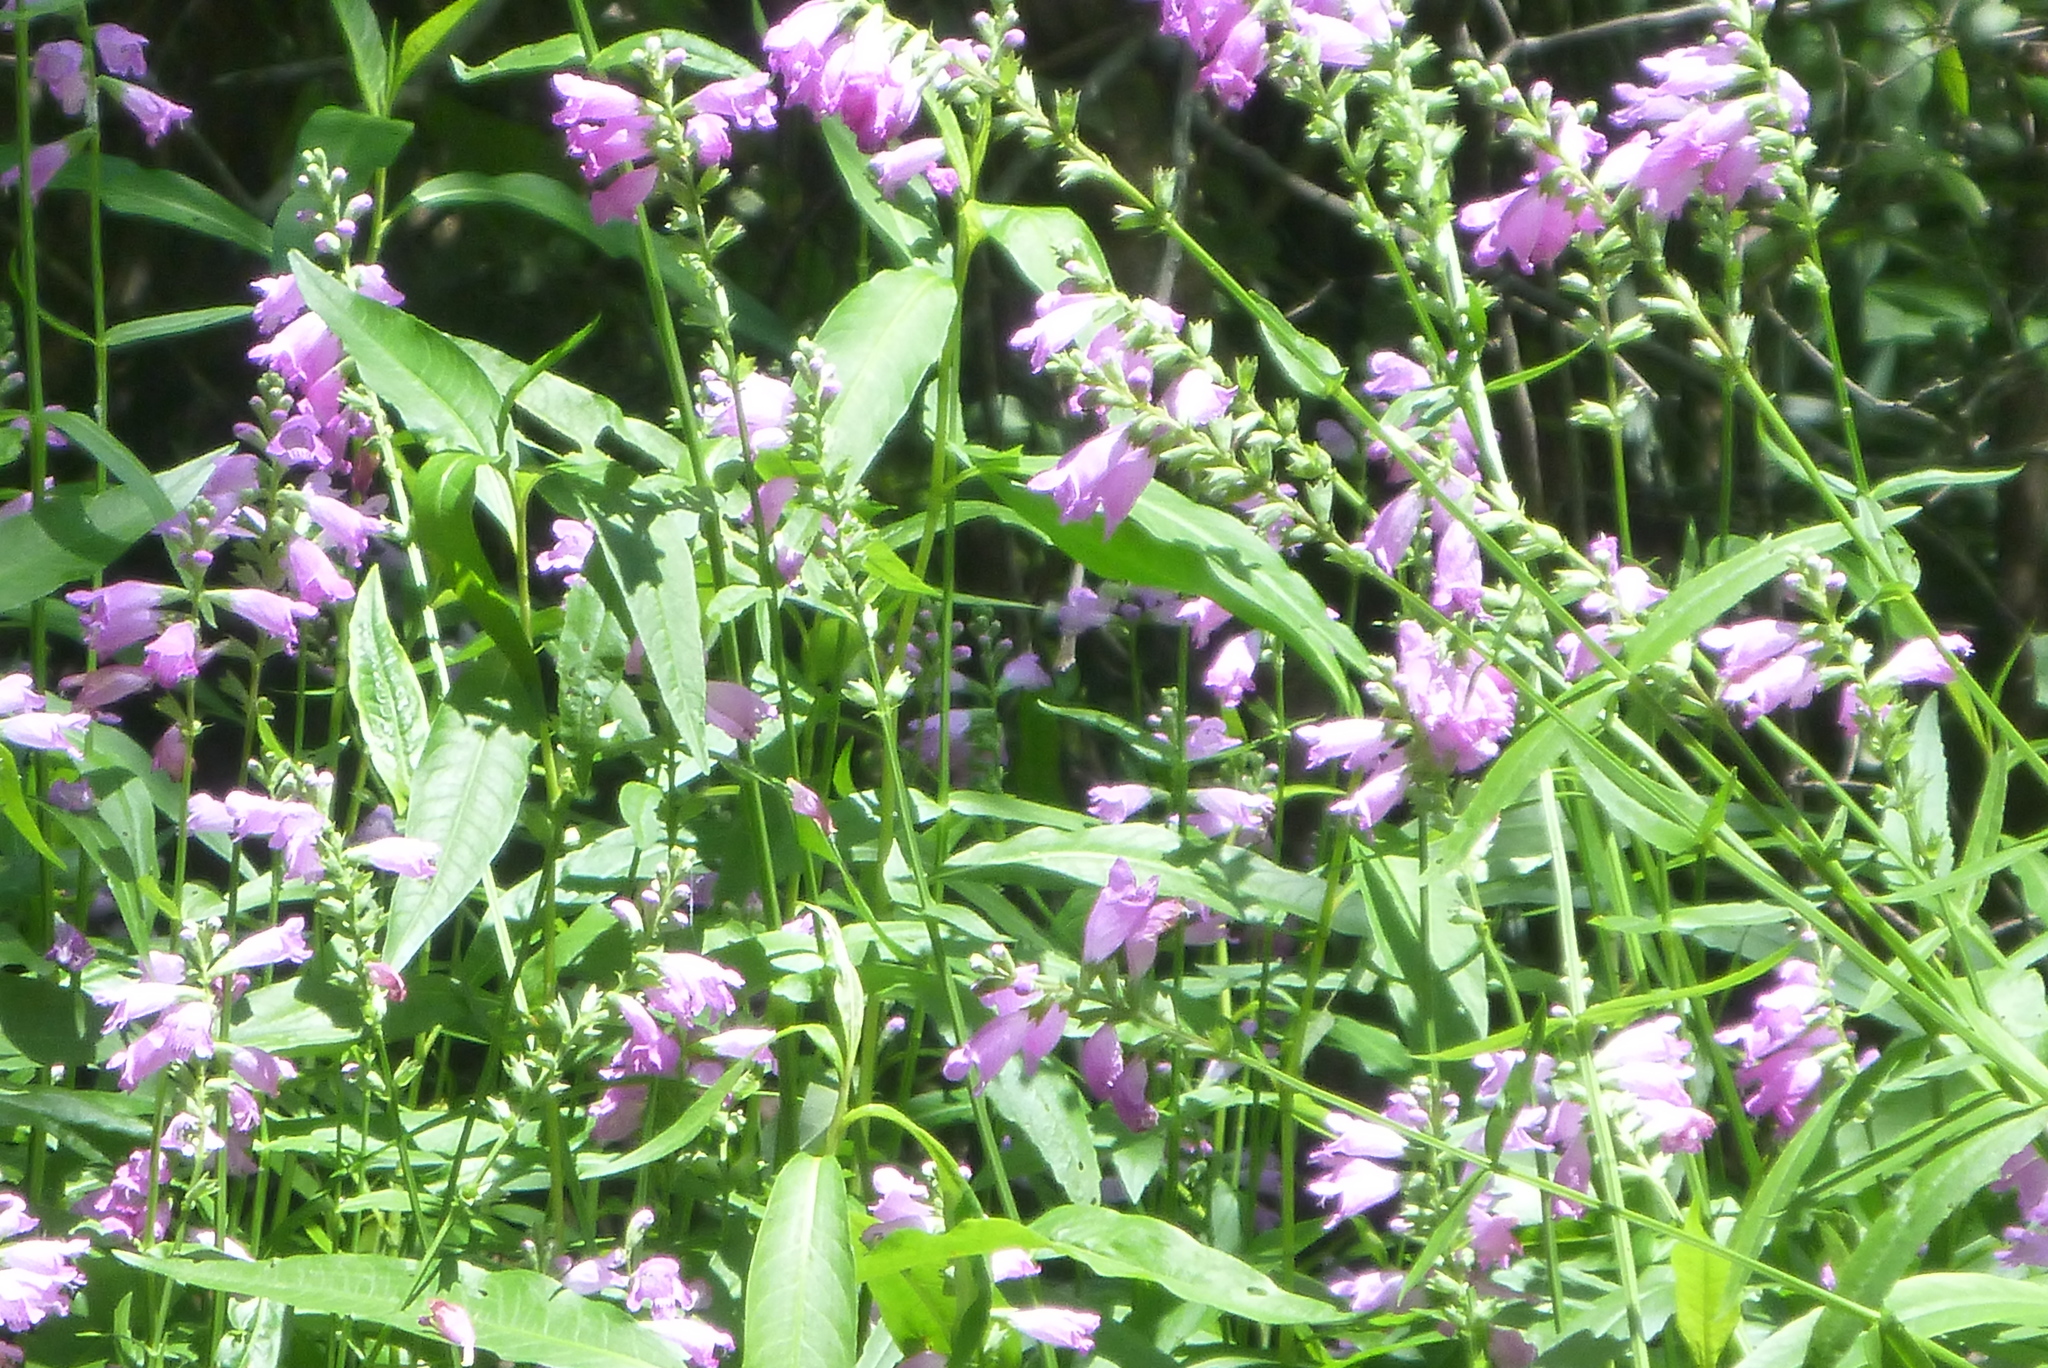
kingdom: Plantae
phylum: Tracheophyta
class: Magnoliopsida
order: Lamiales
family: Lamiaceae
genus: Physostegia
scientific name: Physostegia leptophylla
